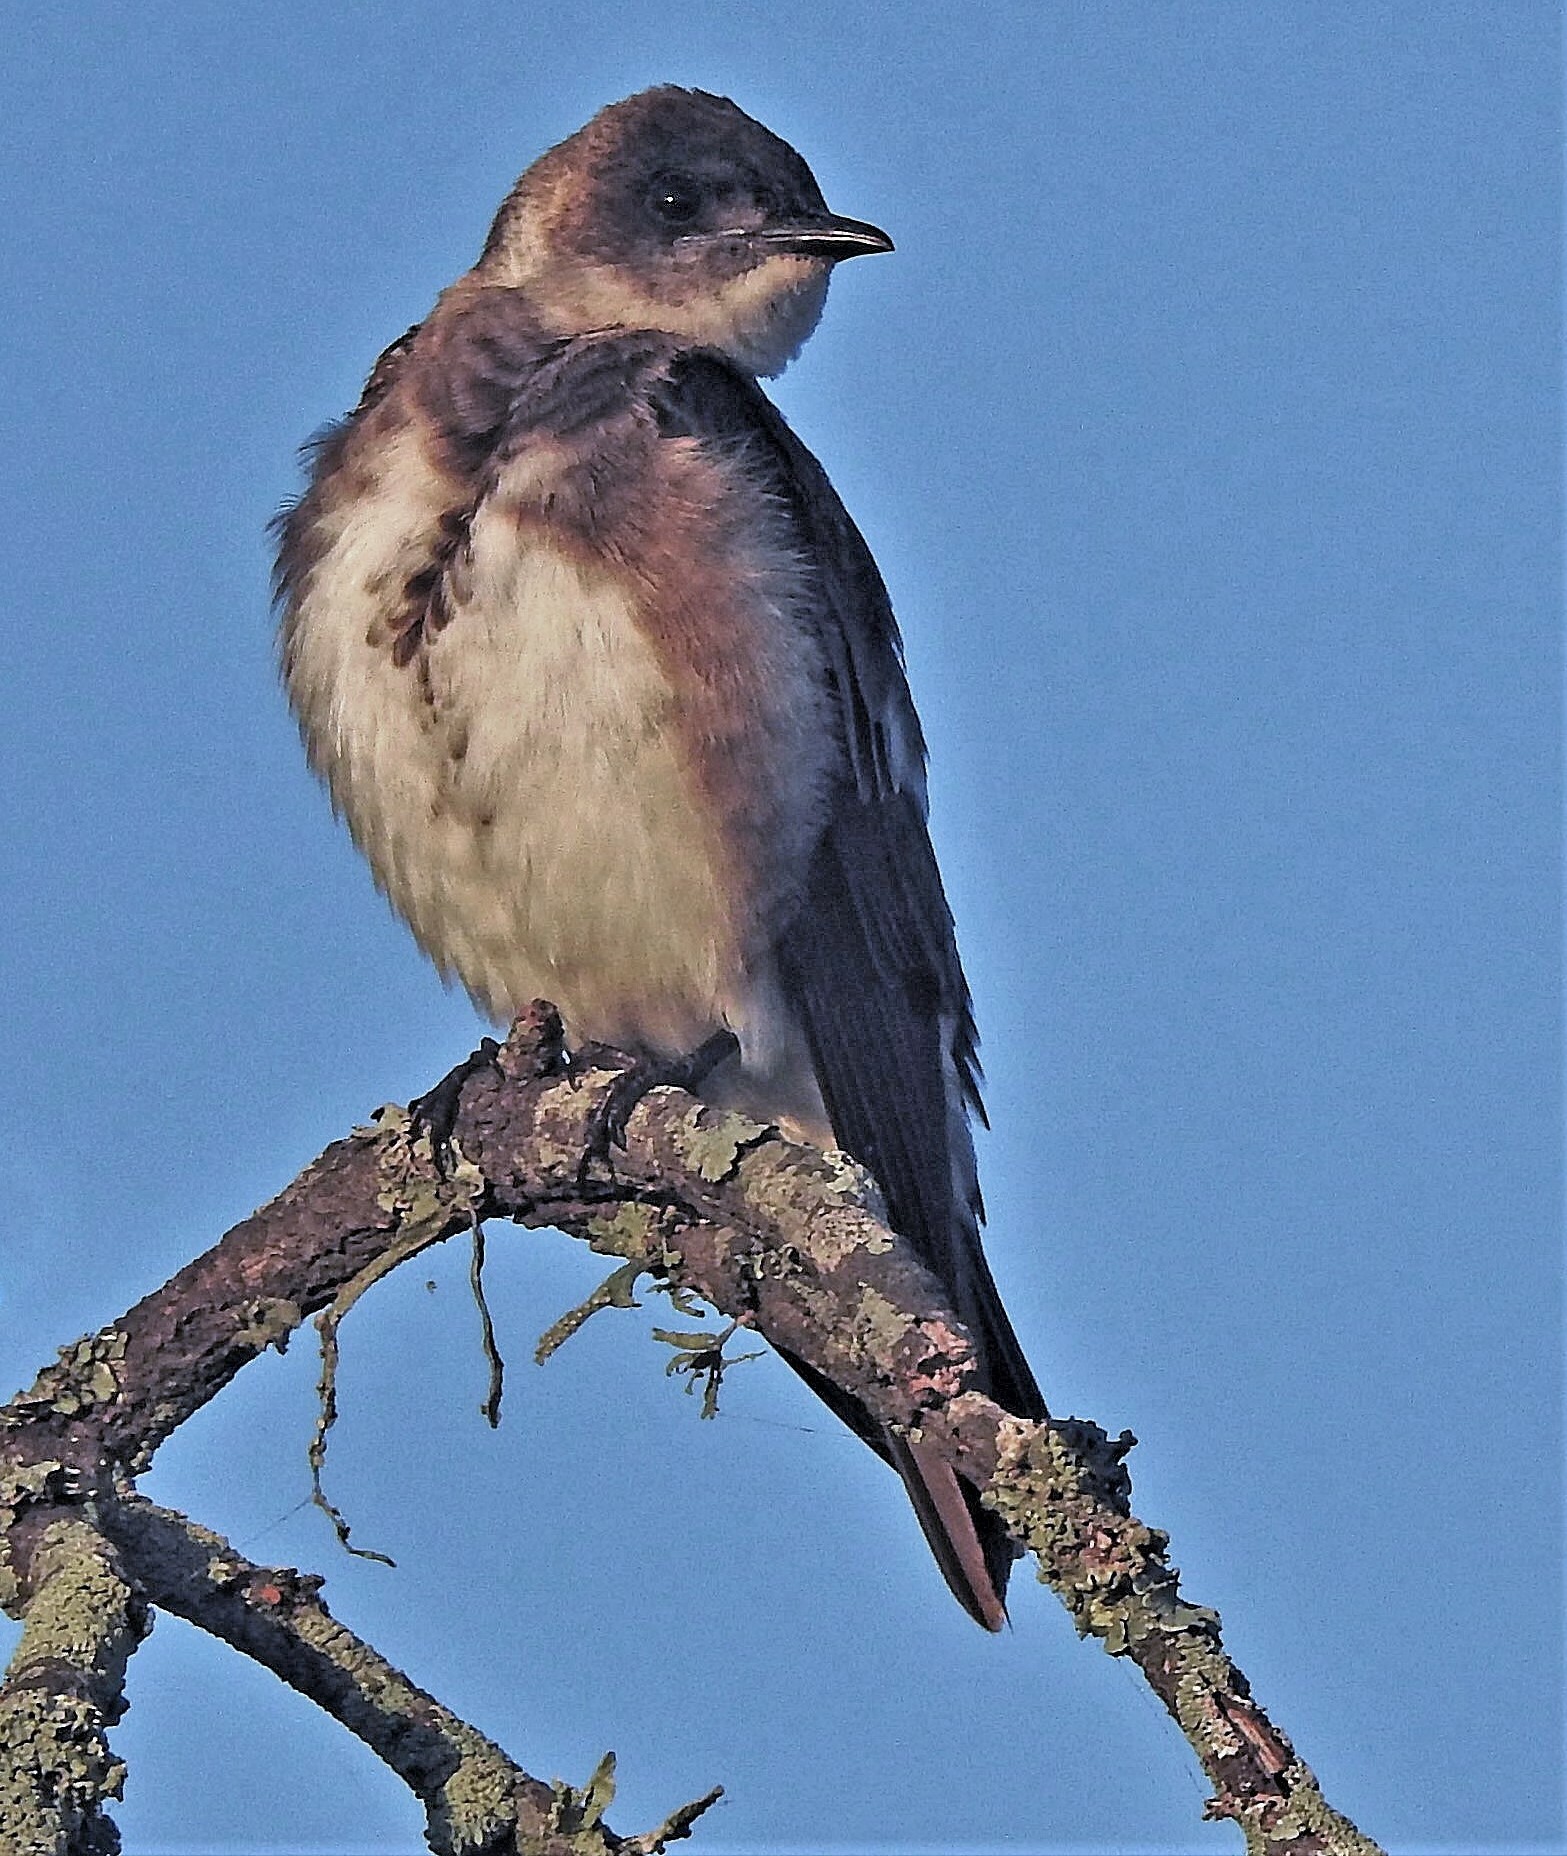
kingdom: Animalia
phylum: Chordata
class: Aves
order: Passeriformes
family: Hirundinidae
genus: Progne
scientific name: Progne tapera
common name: Brown-chested martin
